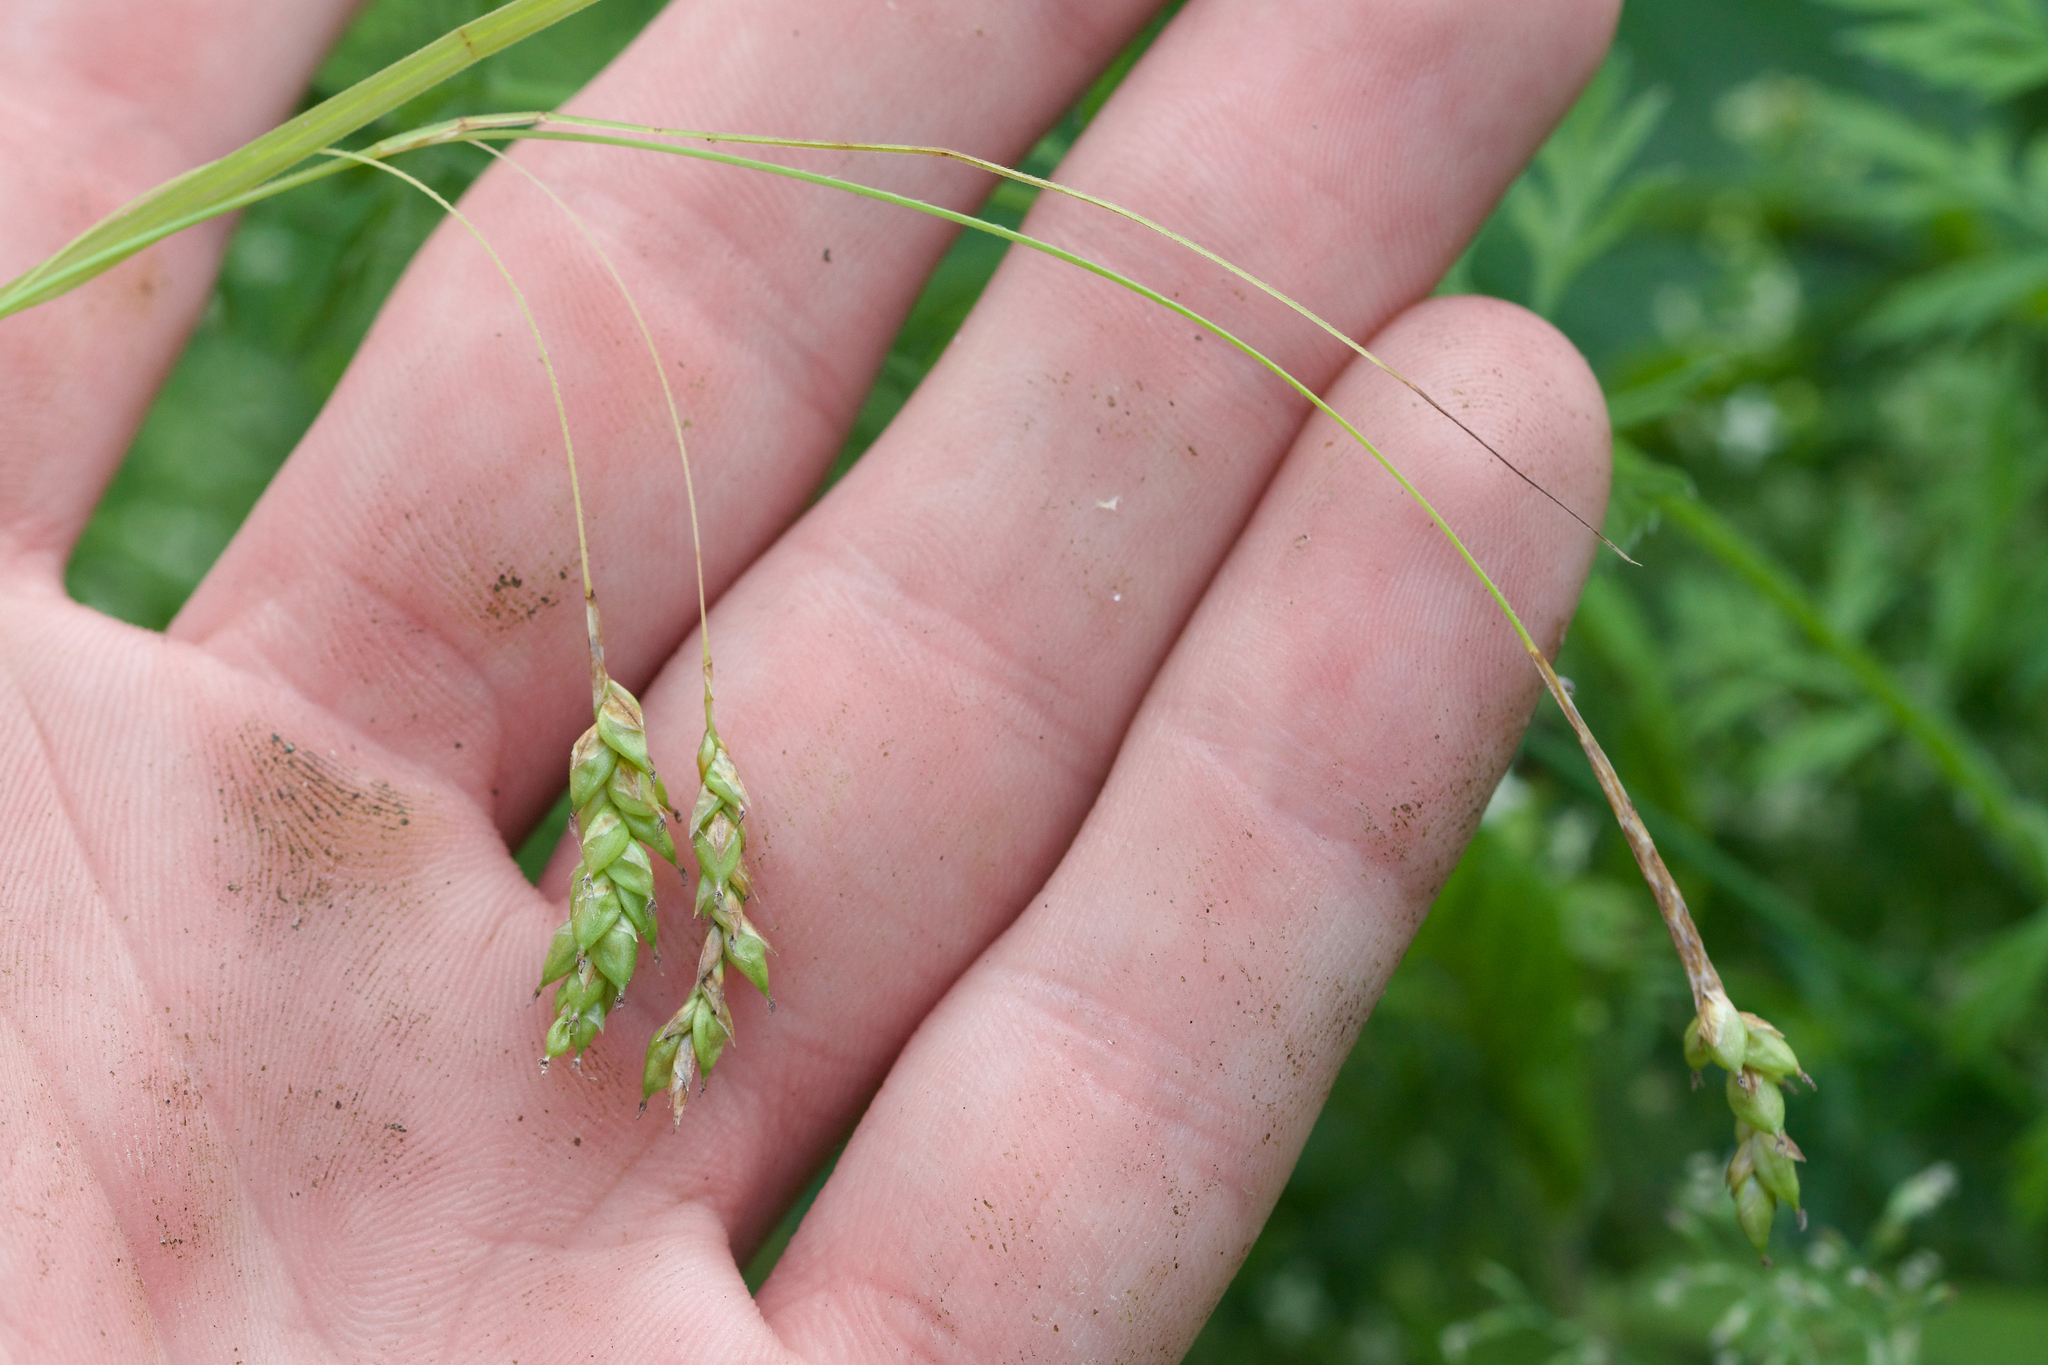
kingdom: Plantae
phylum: Tracheophyta
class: Liliopsida
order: Poales
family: Cyperaceae
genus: Carex
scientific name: Carex formosa
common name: Awnless graceful sedge
